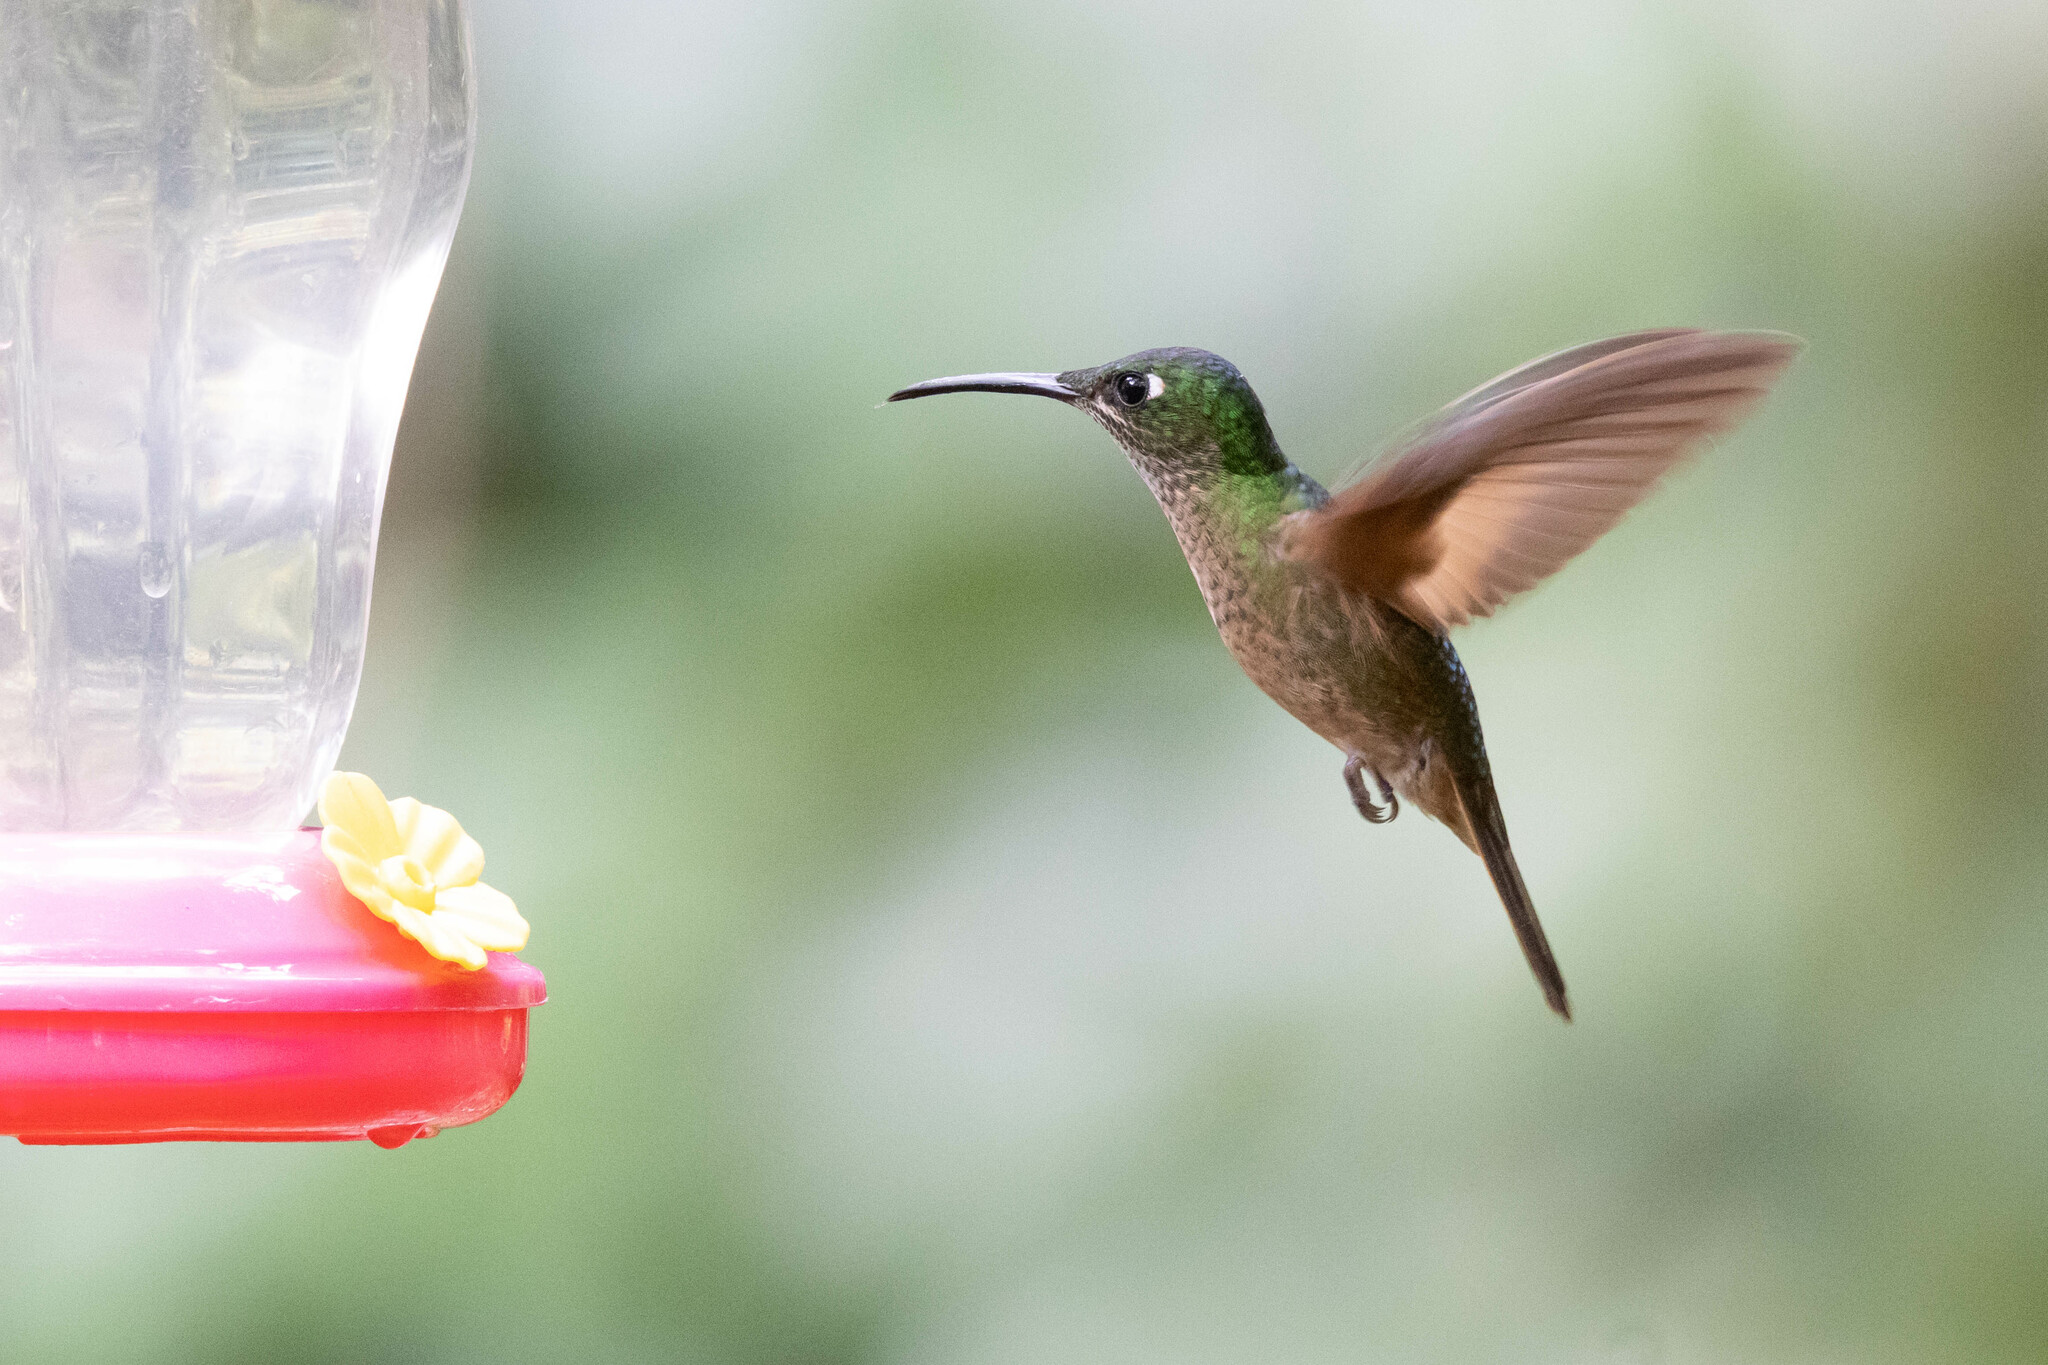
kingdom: Animalia
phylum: Chordata
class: Aves
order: Apodiformes
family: Trochilidae
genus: Heliodoxa
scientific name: Heliodoxa rubinoides
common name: Fawn-breasted brilliant
